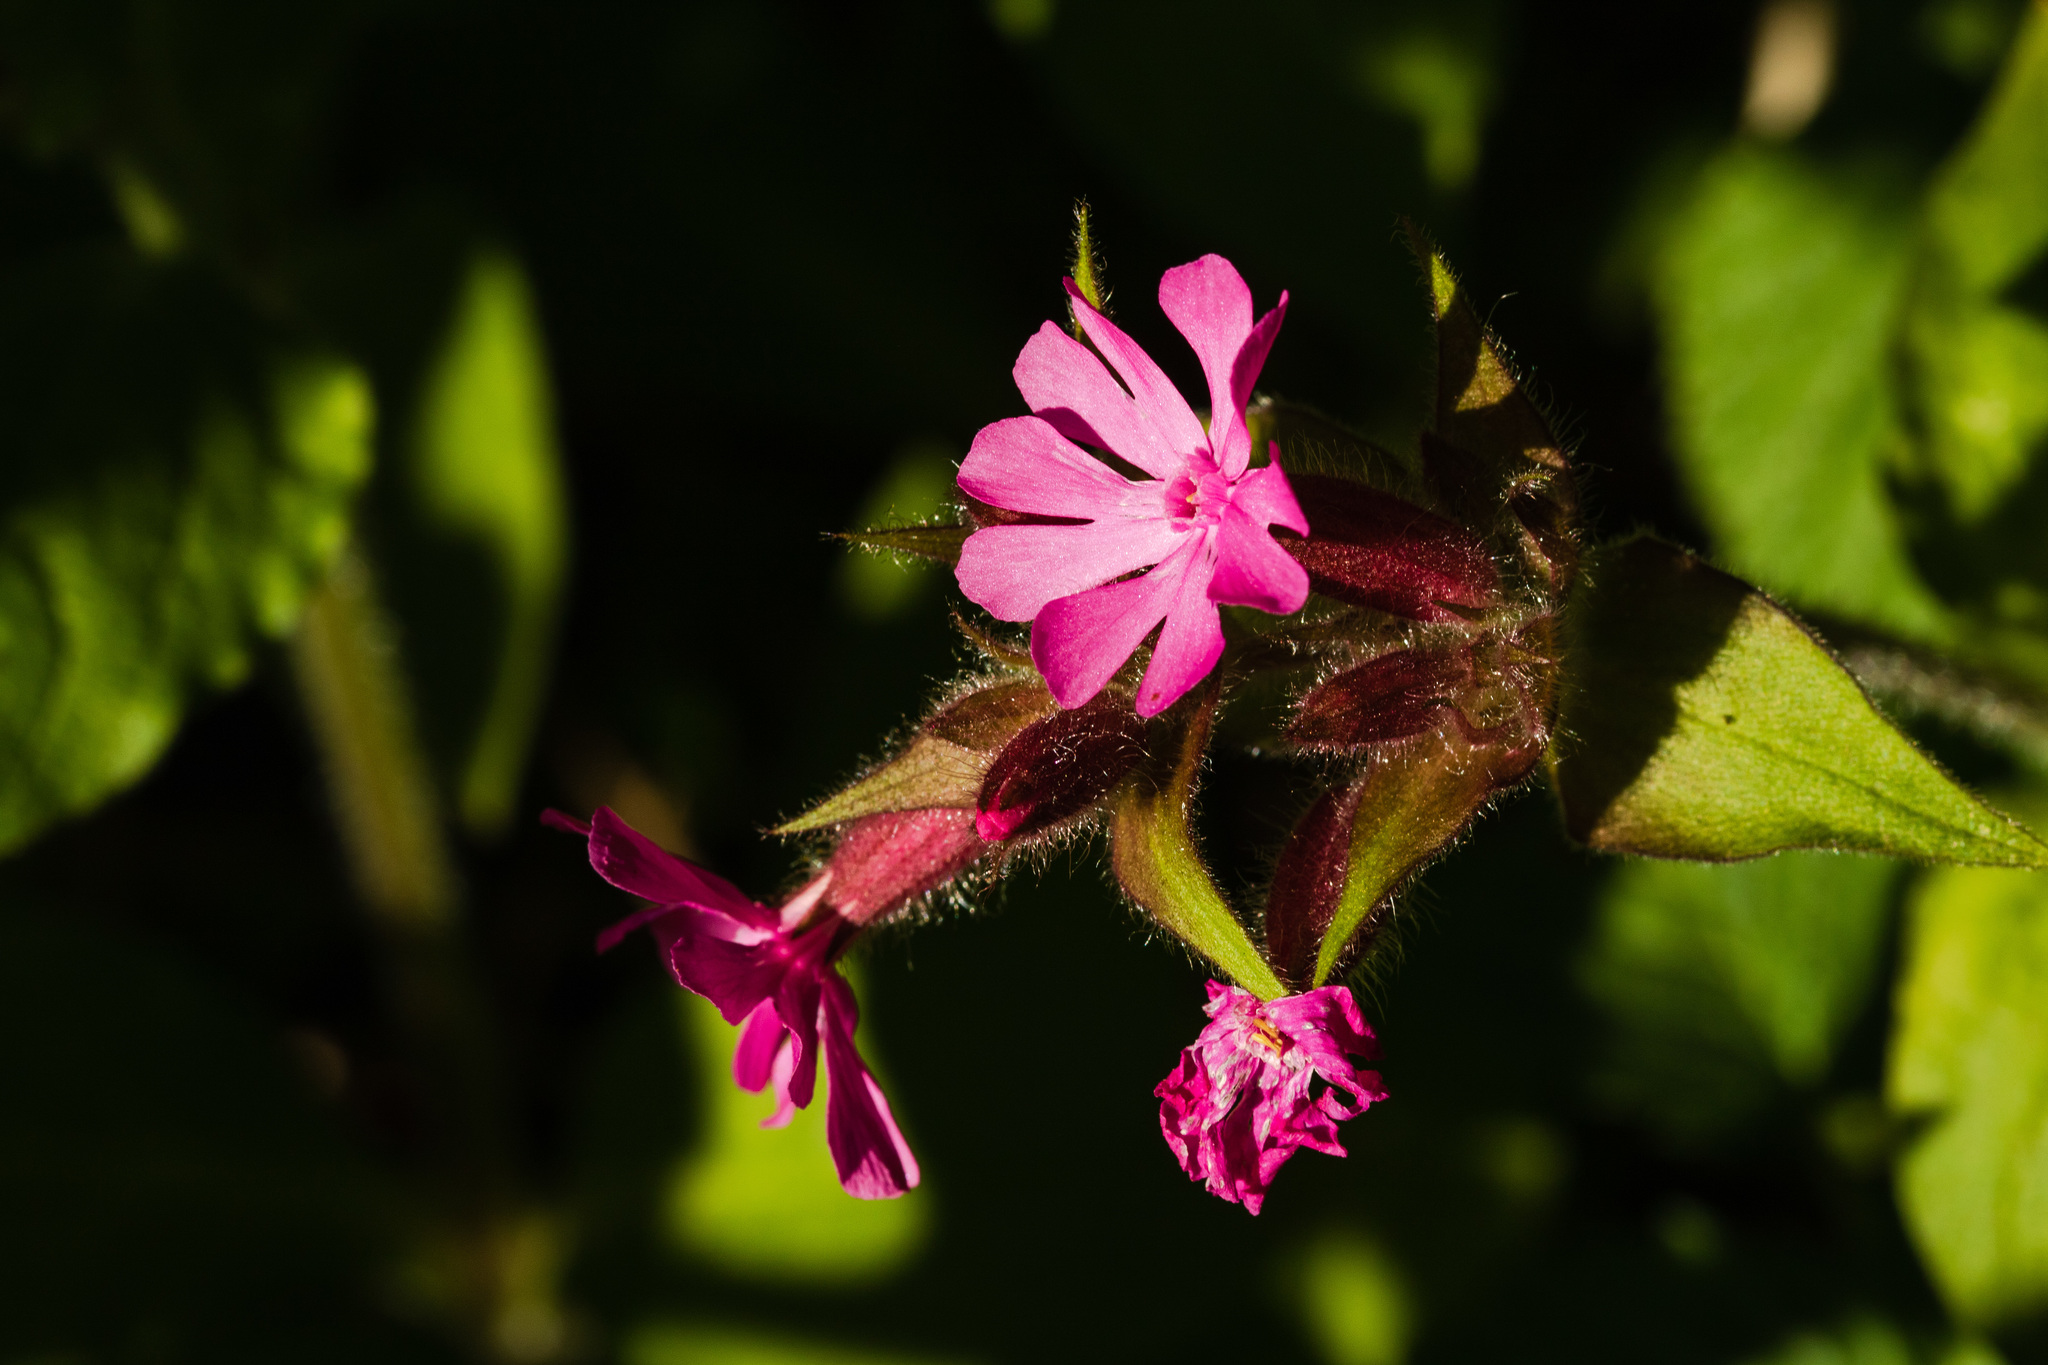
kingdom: Plantae
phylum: Tracheophyta
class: Magnoliopsida
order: Caryophyllales
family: Caryophyllaceae
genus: Silene
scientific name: Silene dioica
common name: Red campion
